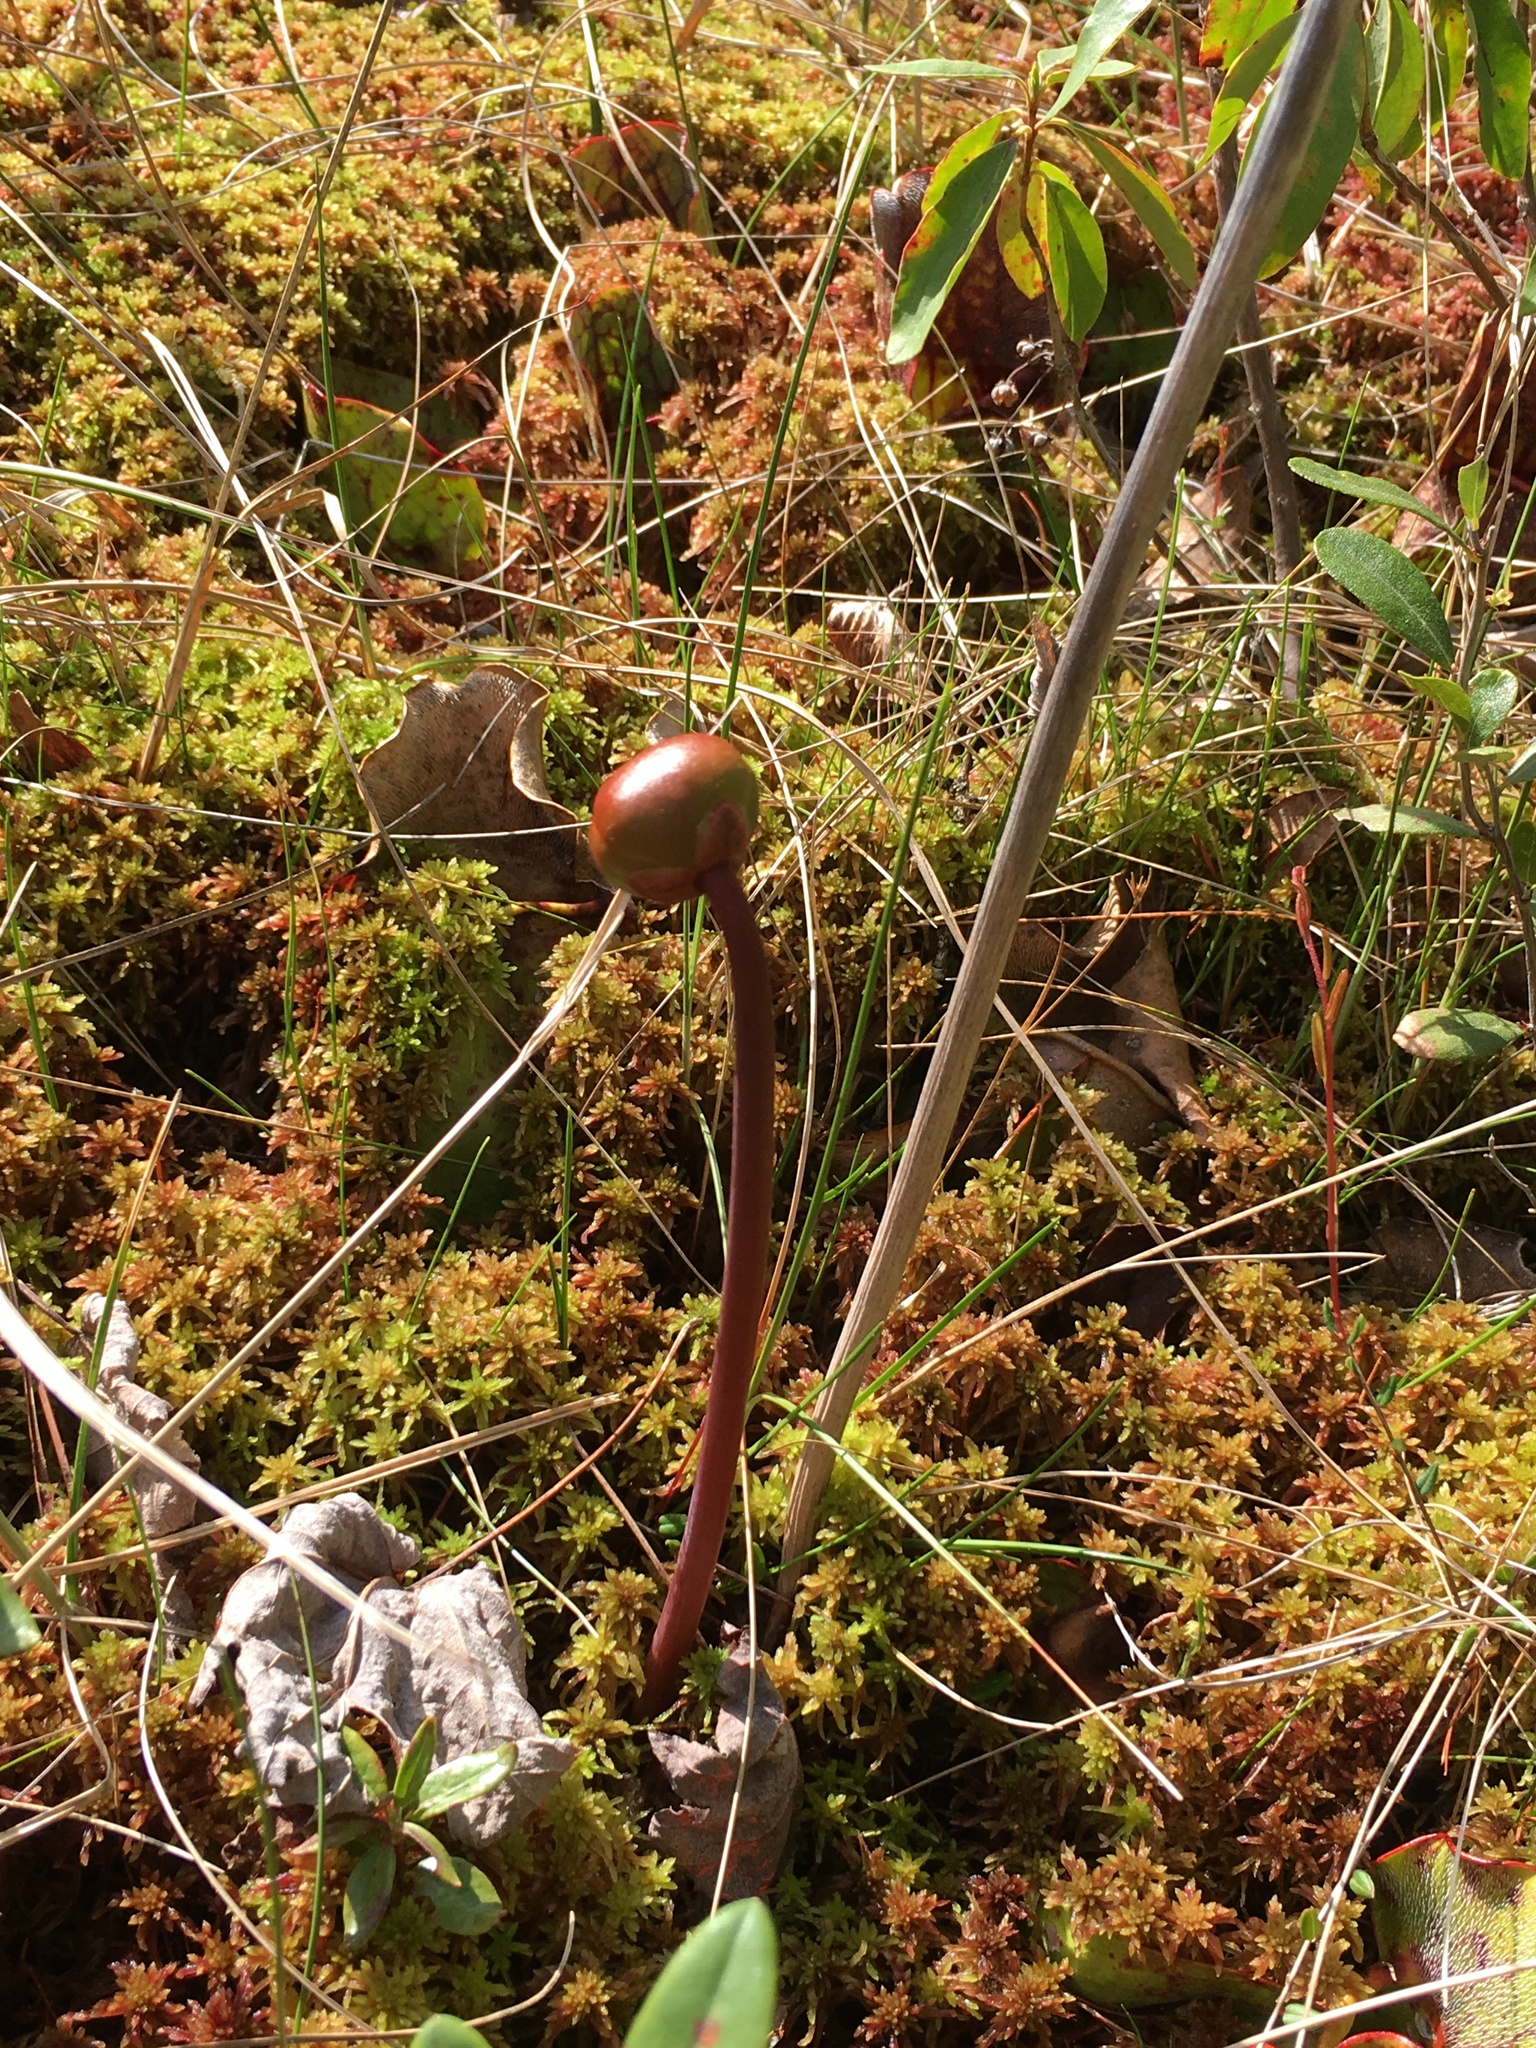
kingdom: Plantae
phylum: Tracheophyta
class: Magnoliopsida
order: Ericales
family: Sarraceniaceae
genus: Sarracenia
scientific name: Sarracenia purpurea
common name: Pitcherplant
